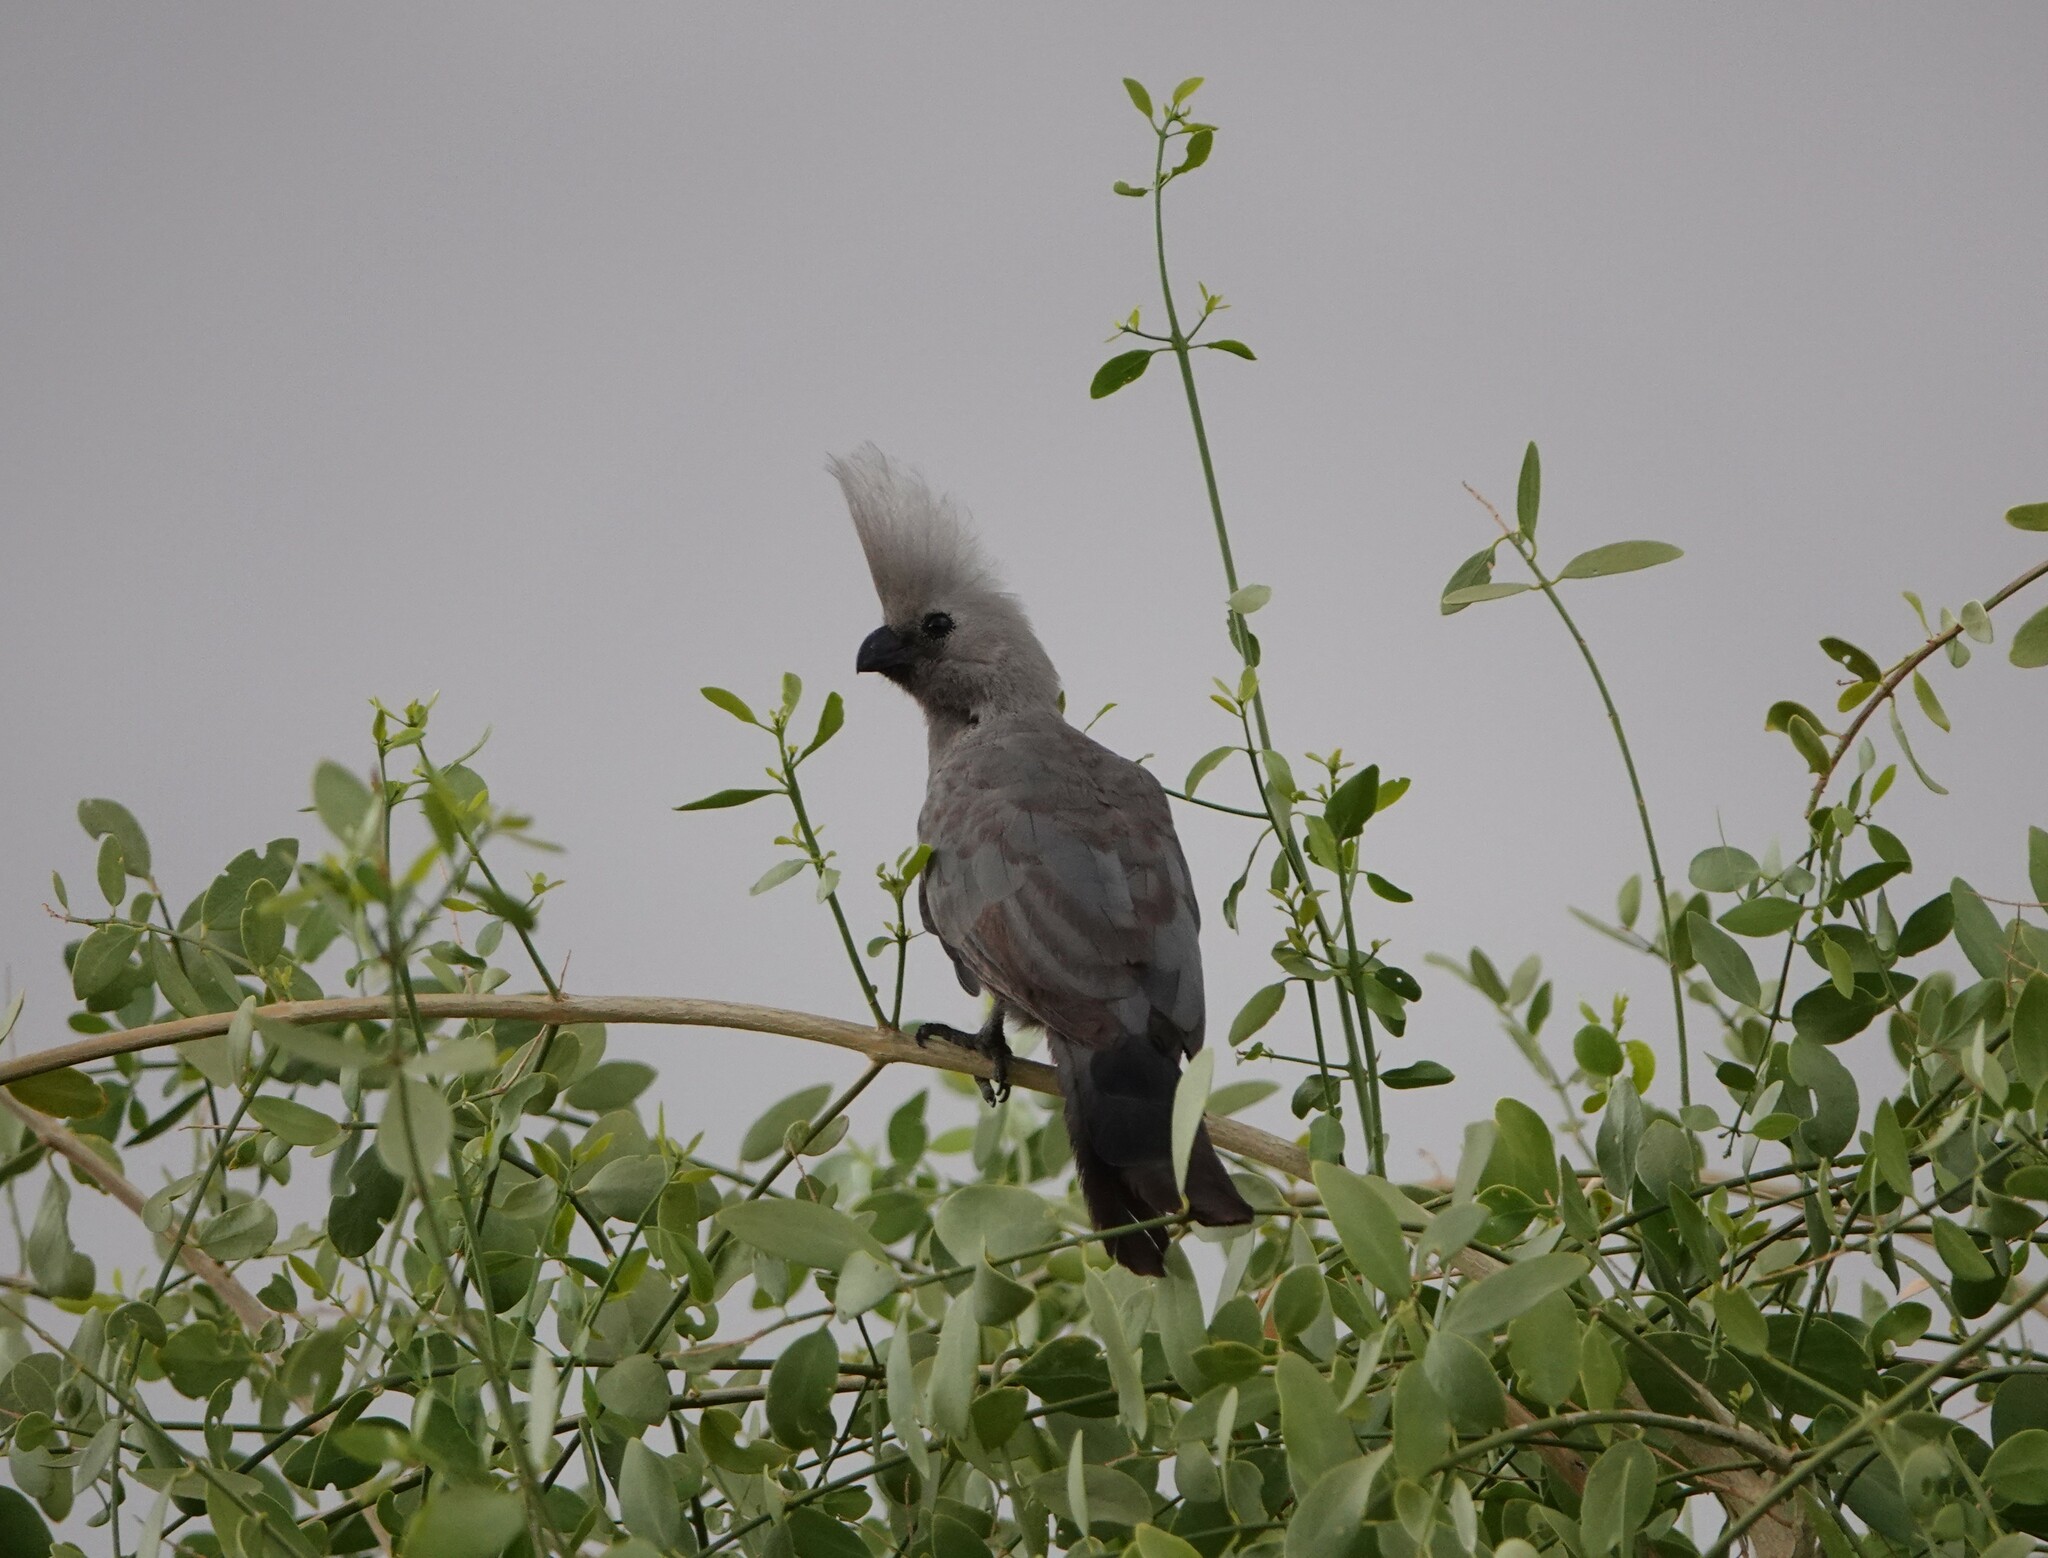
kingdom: Animalia
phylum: Chordata
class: Aves
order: Musophagiformes
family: Musophagidae
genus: Corythaixoides
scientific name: Corythaixoides concolor
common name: Grey go-away-bird
